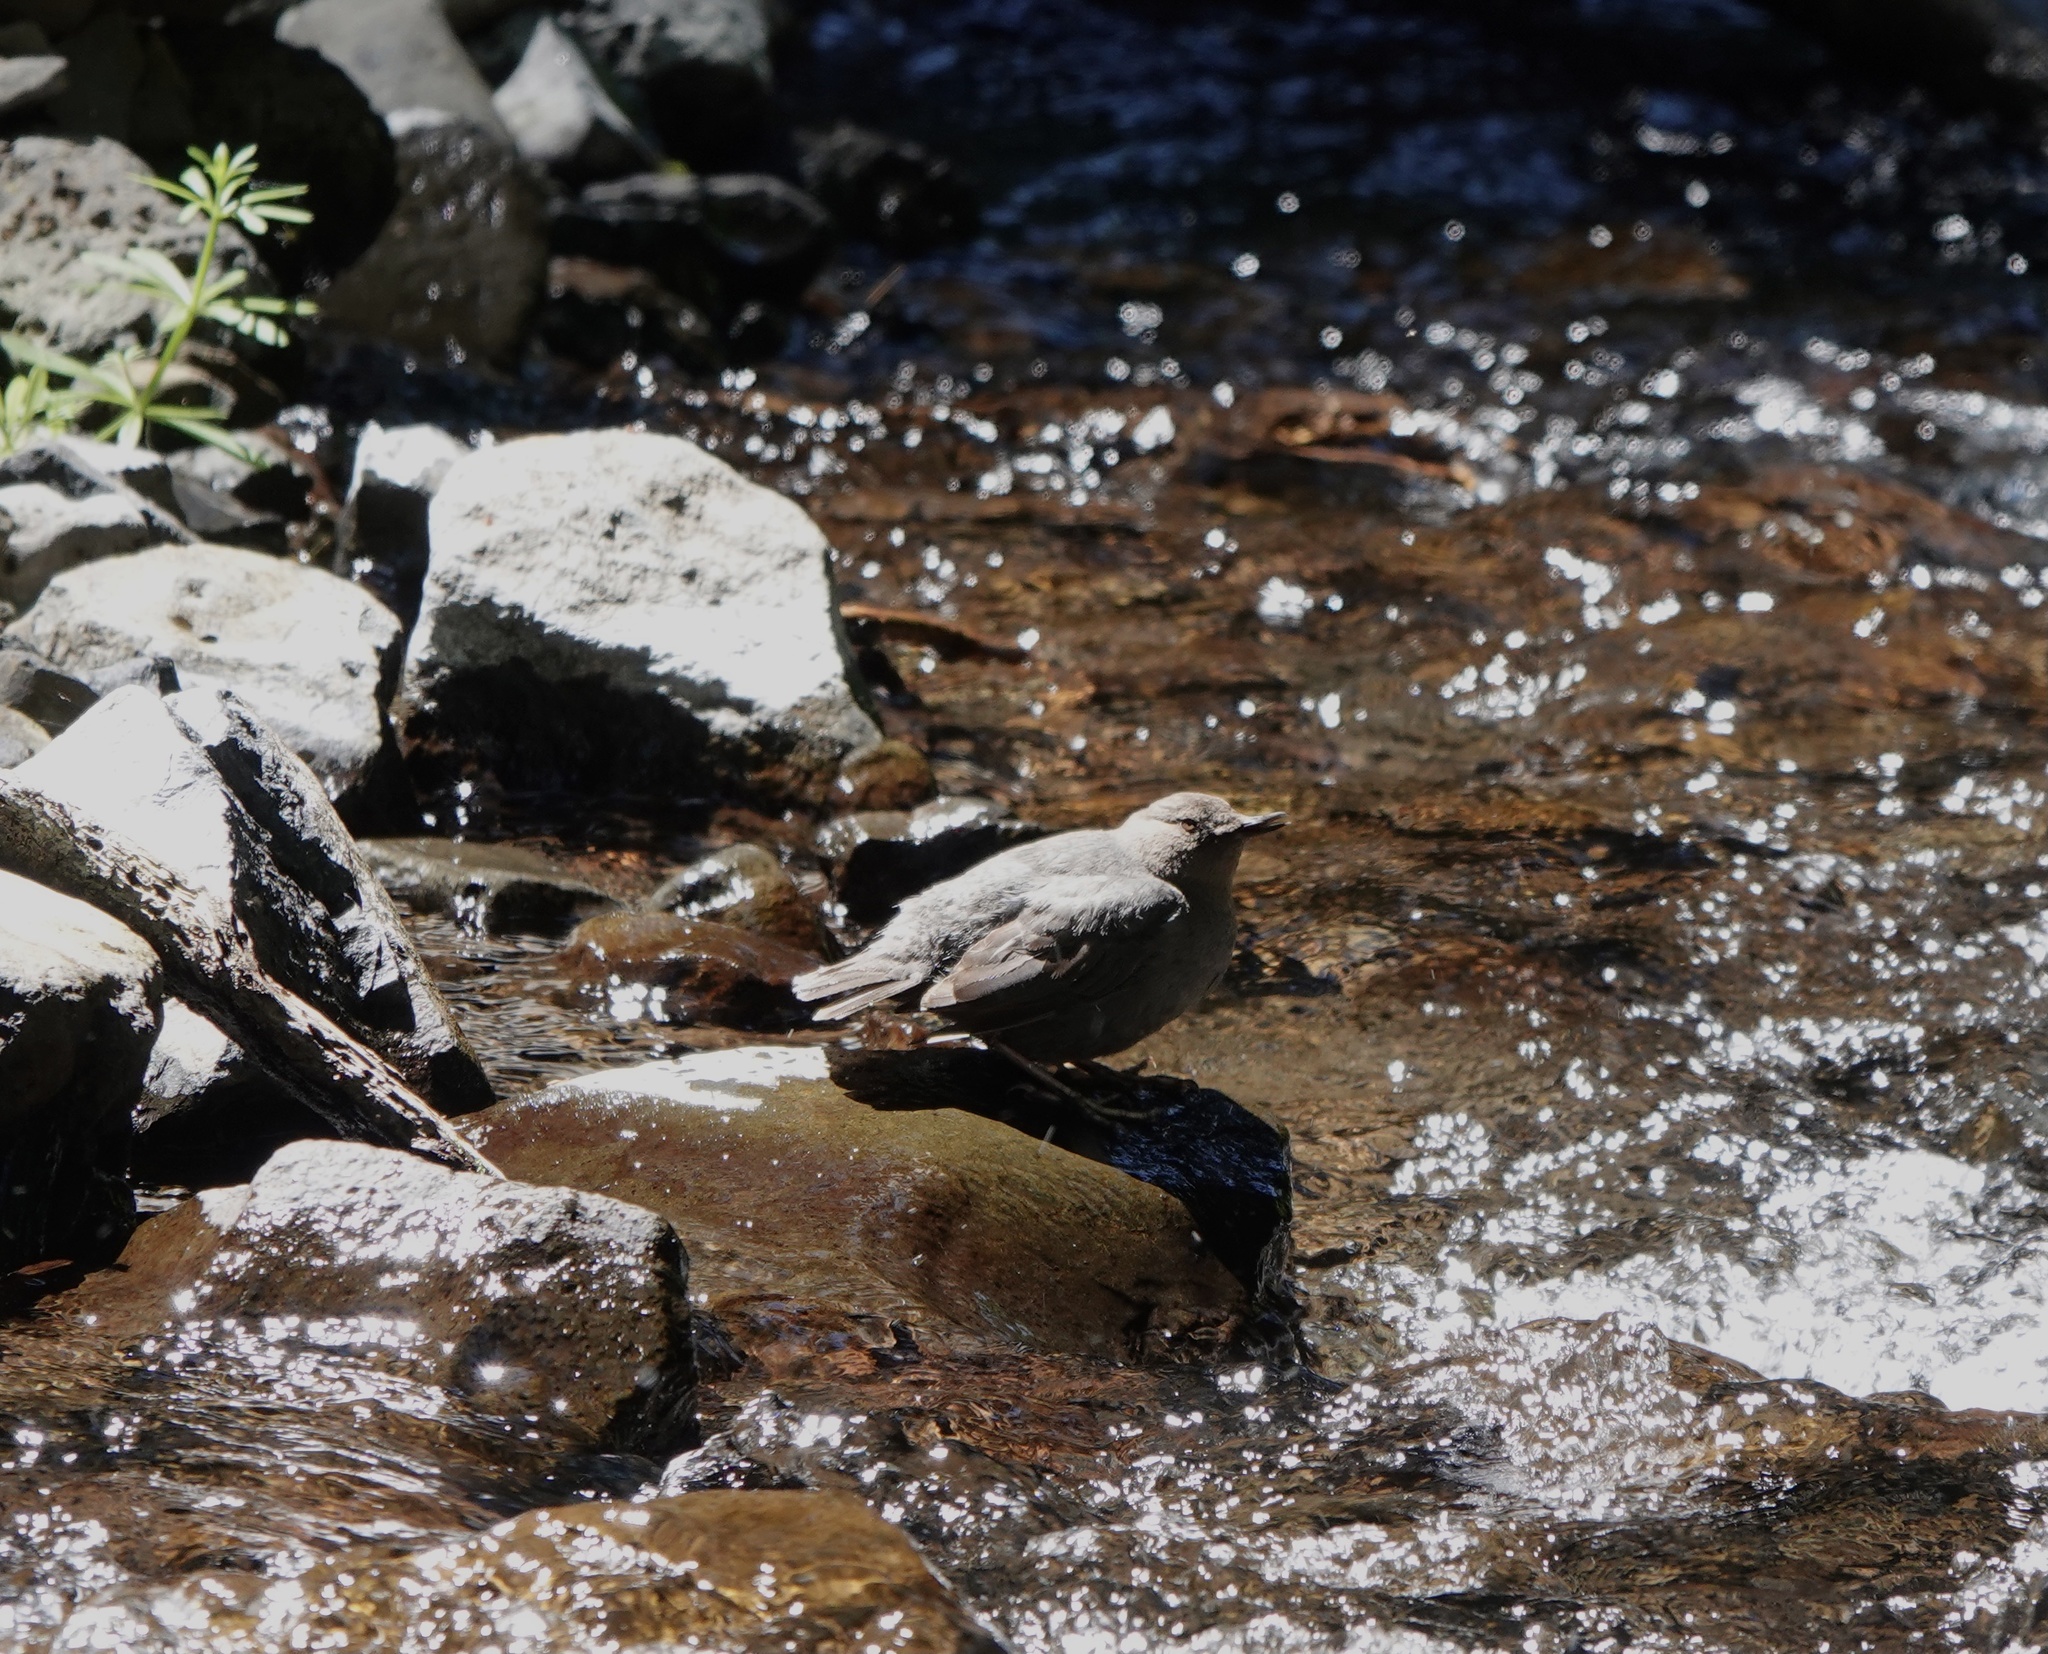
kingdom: Animalia
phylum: Chordata
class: Aves
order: Passeriformes
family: Cinclidae
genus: Cinclus
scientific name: Cinclus mexicanus
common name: American dipper
